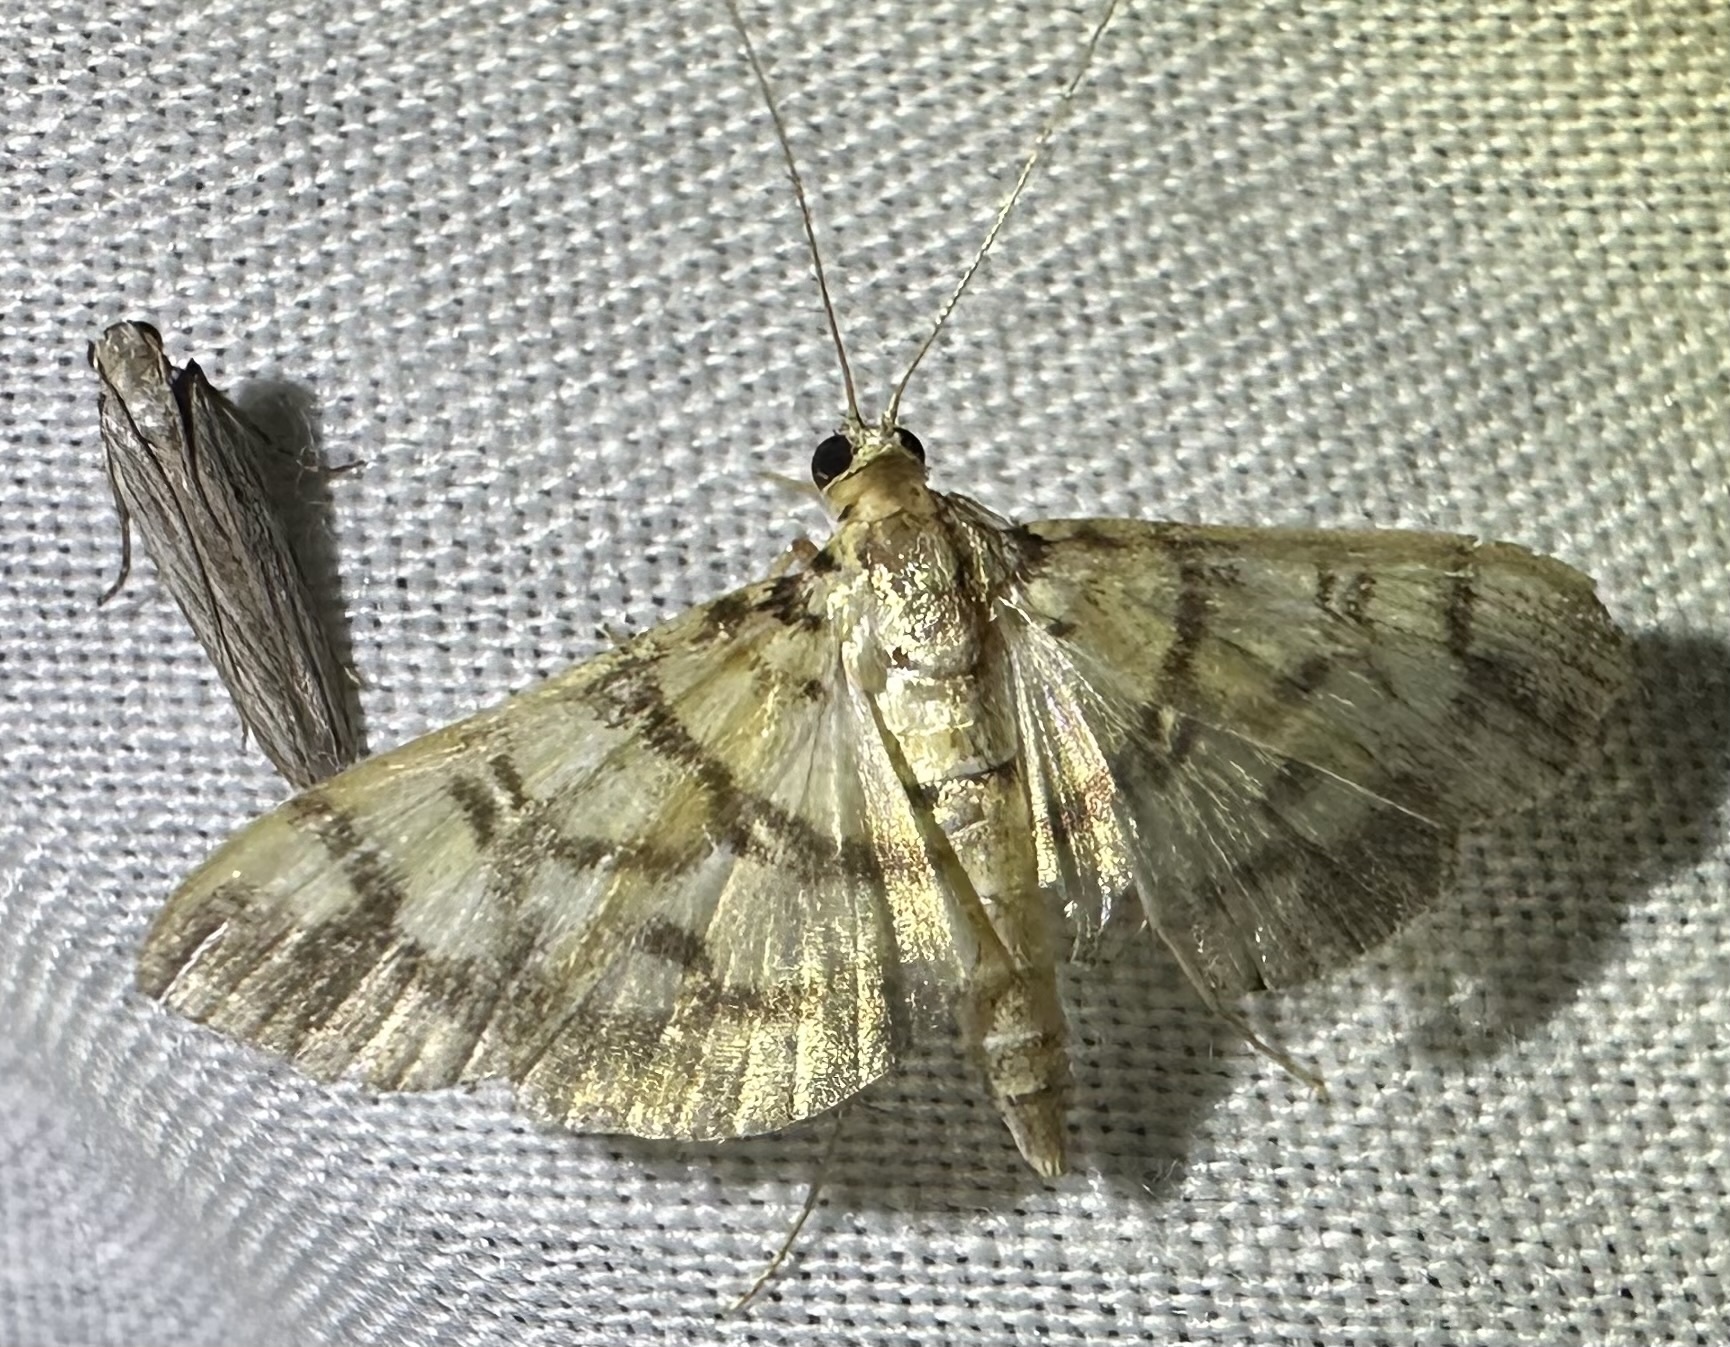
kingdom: Animalia
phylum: Arthropoda
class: Insecta
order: Lepidoptera
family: Crambidae
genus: Pardomima
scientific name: Pardomima distortana
